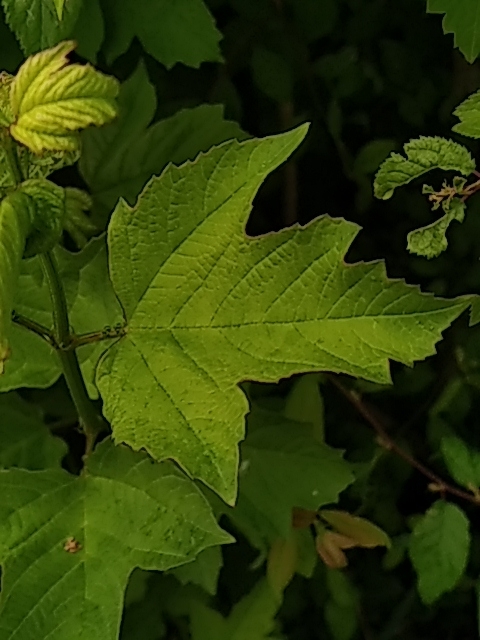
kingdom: Plantae
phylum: Tracheophyta
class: Magnoliopsida
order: Dipsacales
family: Viburnaceae
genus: Viburnum
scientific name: Viburnum opulus
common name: Guelder-rose
